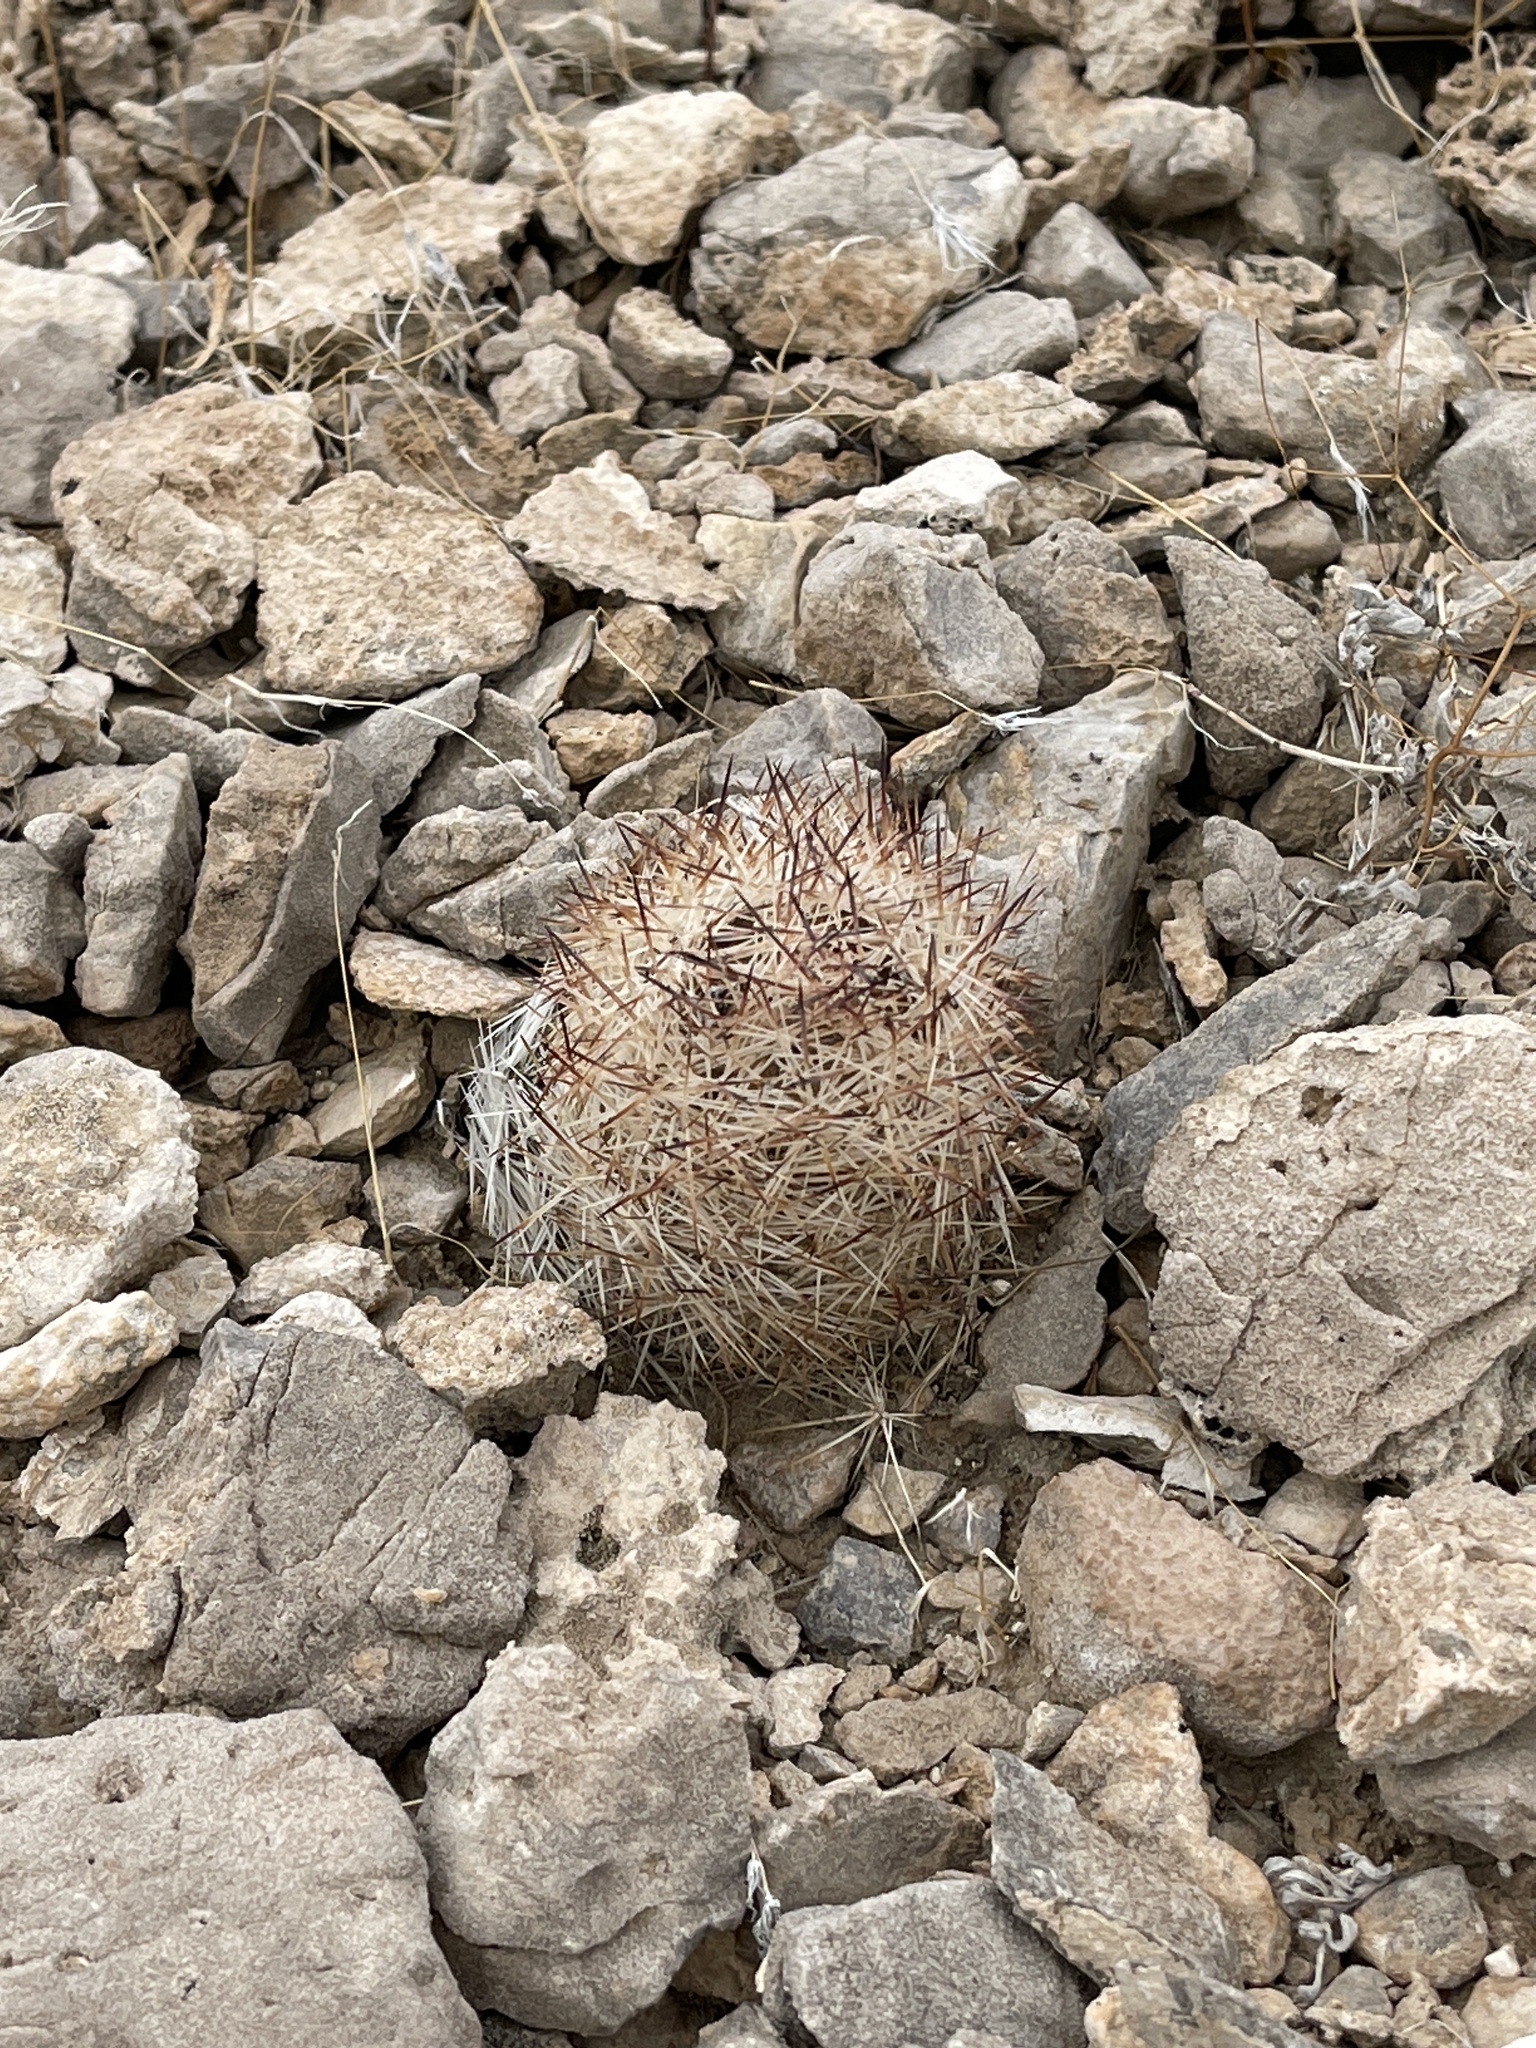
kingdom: Plantae
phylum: Tracheophyta
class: Magnoliopsida
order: Caryophyllales
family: Cactaceae
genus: Pelecyphora
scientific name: Pelecyphora vivipara
